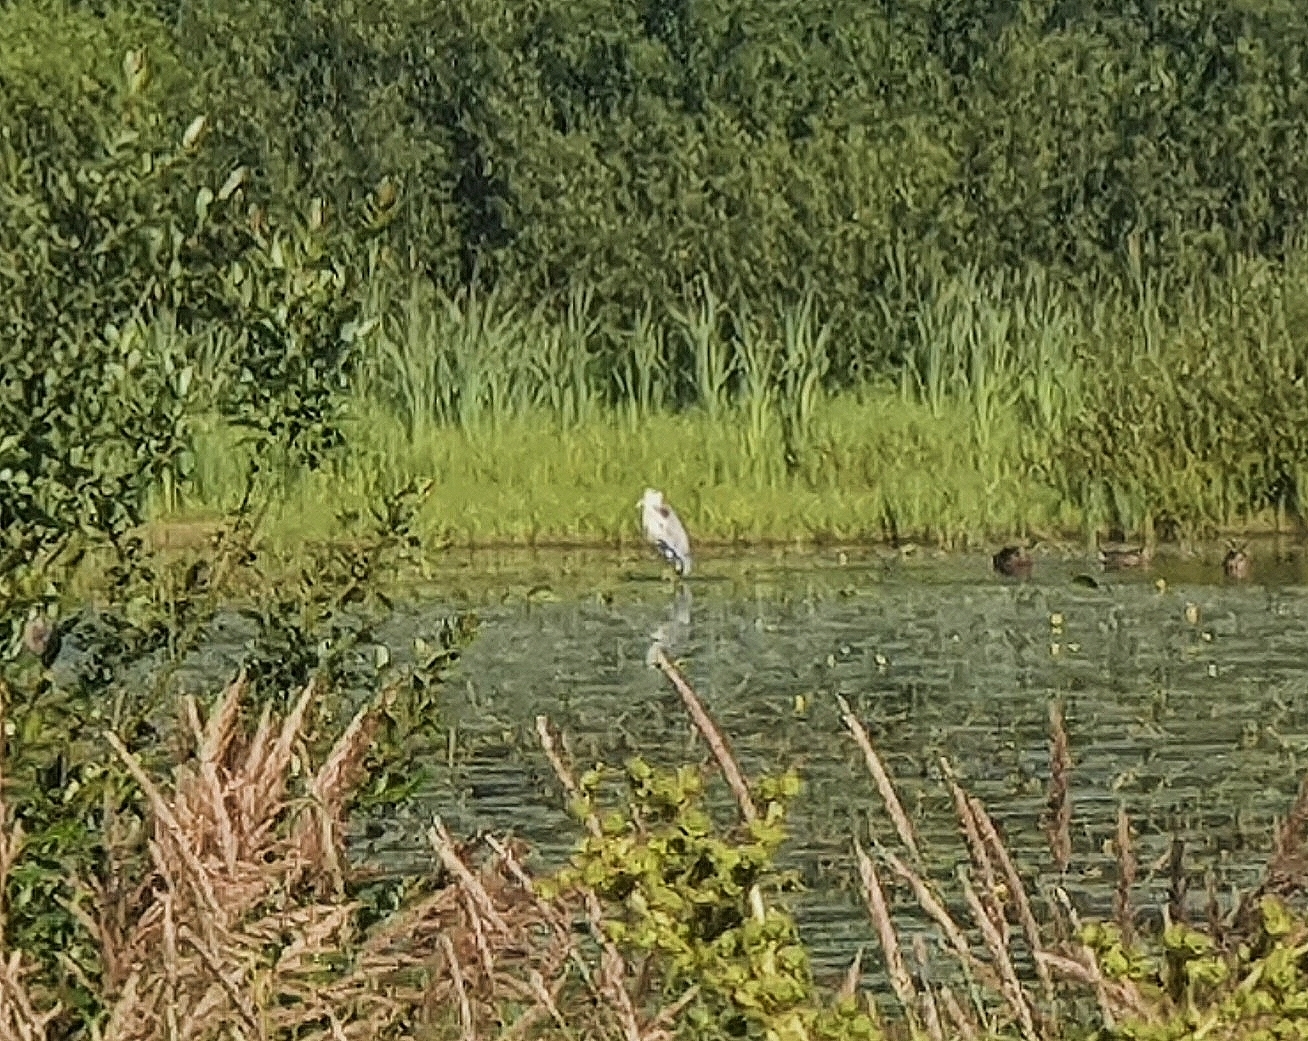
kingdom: Animalia
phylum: Chordata
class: Aves
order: Pelecaniformes
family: Ardeidae
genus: Ardea
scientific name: Ardea cinerea
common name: Grey heron
